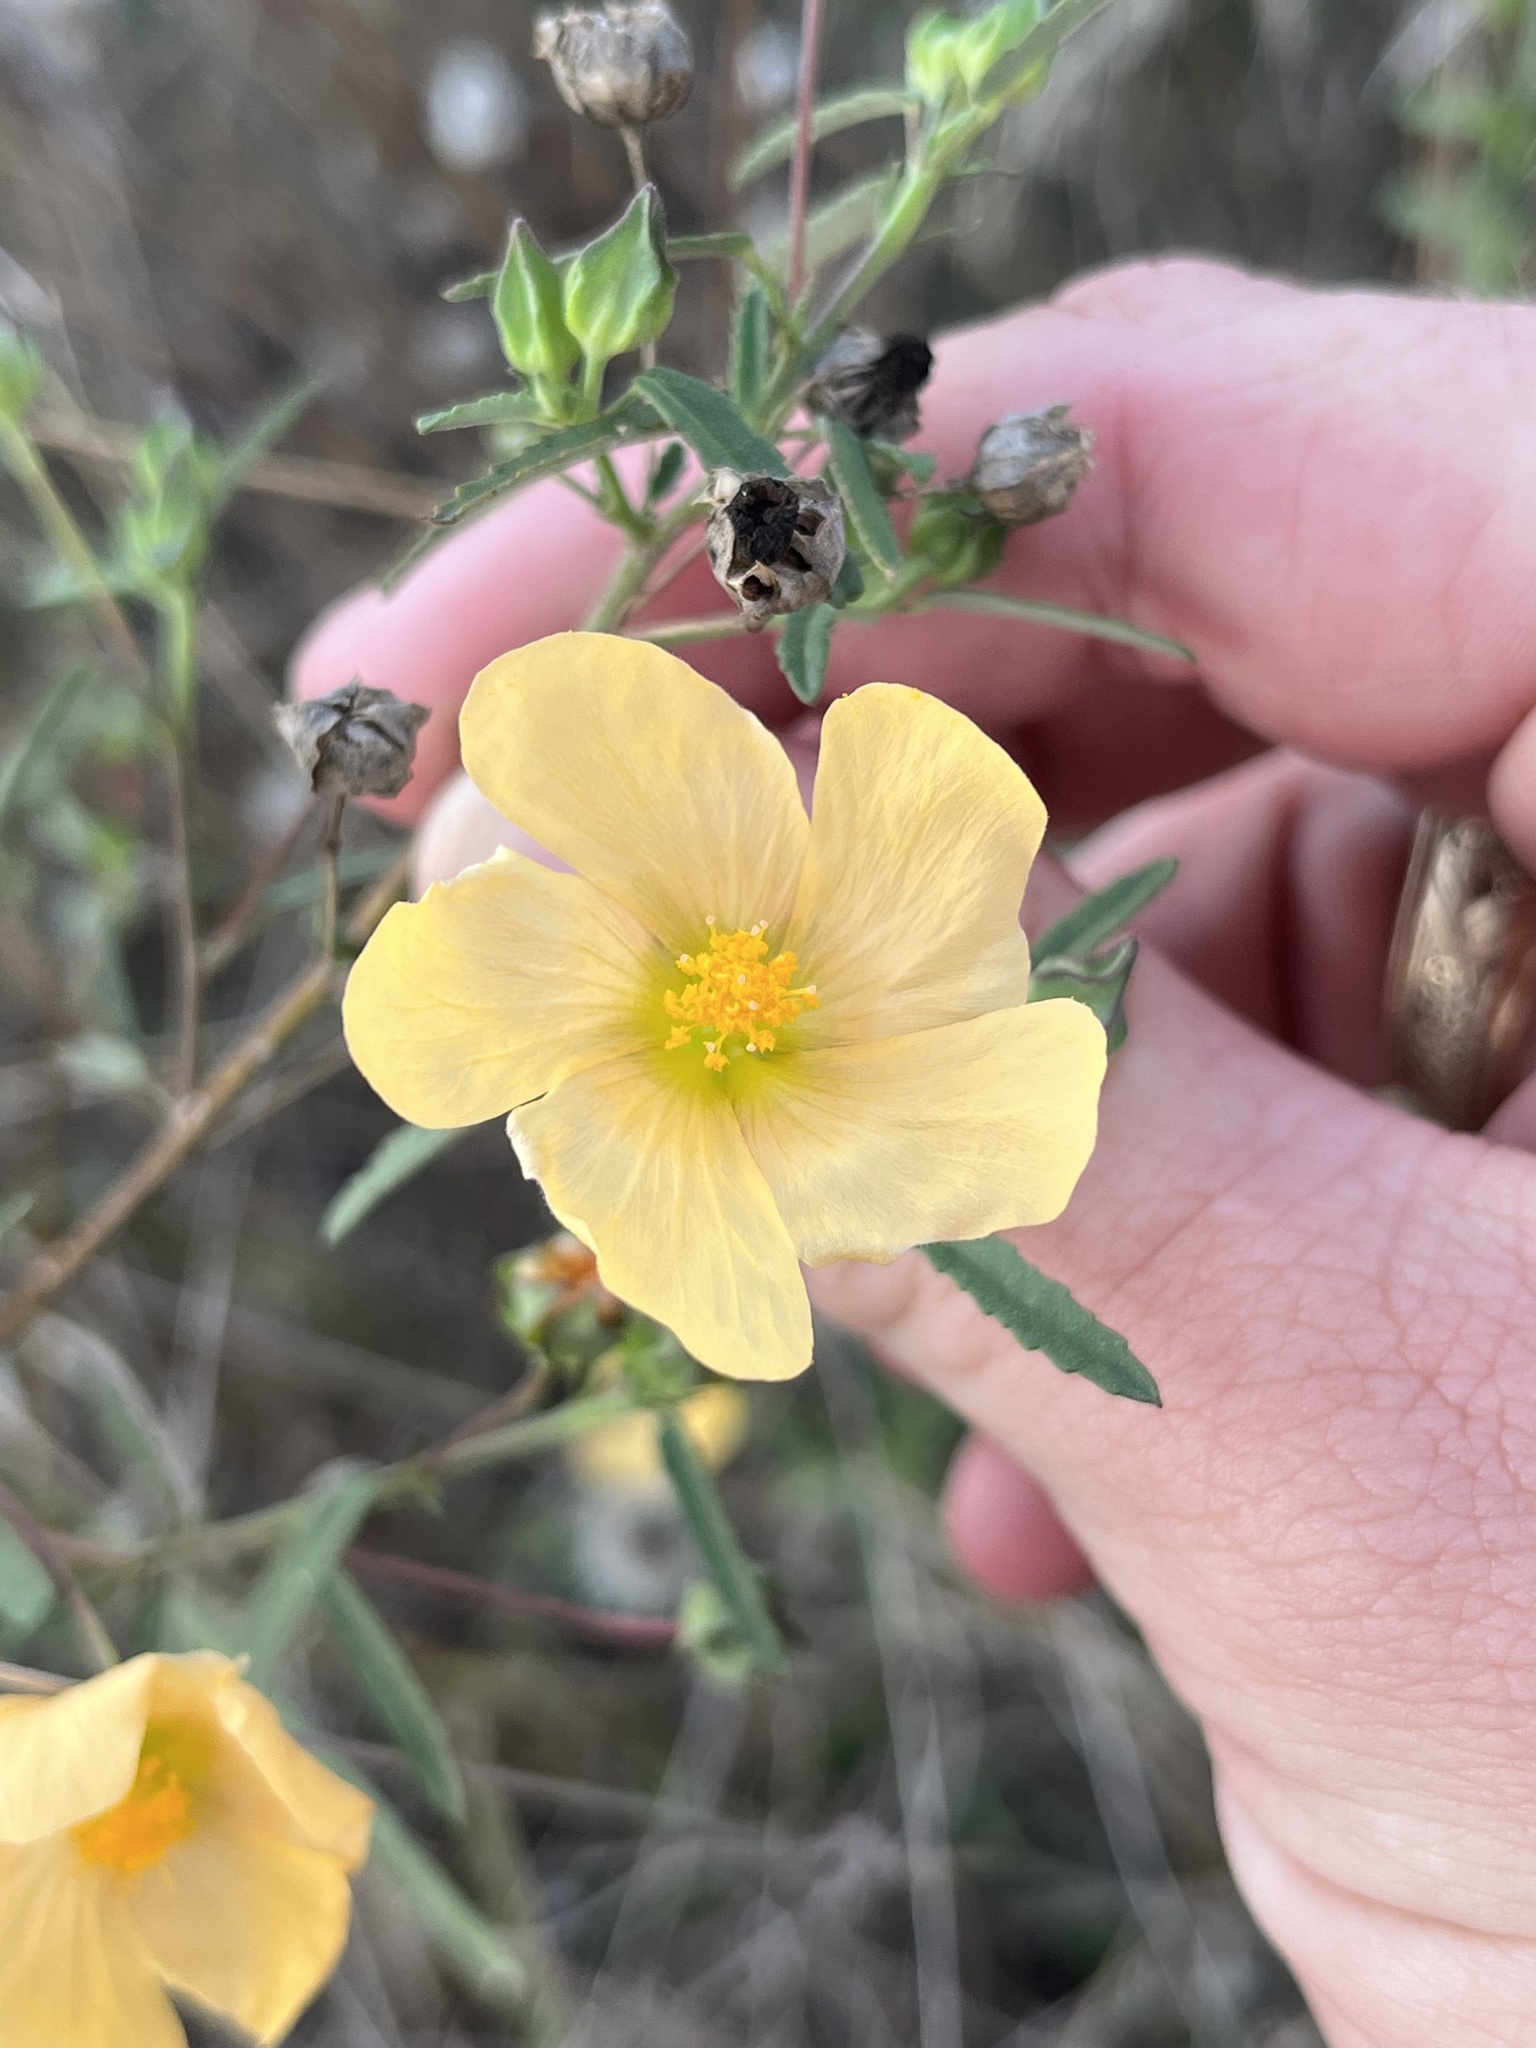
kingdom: Plantae
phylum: Tracheophyta
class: Magnoliopsida
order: Malvales
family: Malvaceae
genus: Sida
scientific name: Sida abutilifolia
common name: Spreading fanpetals
